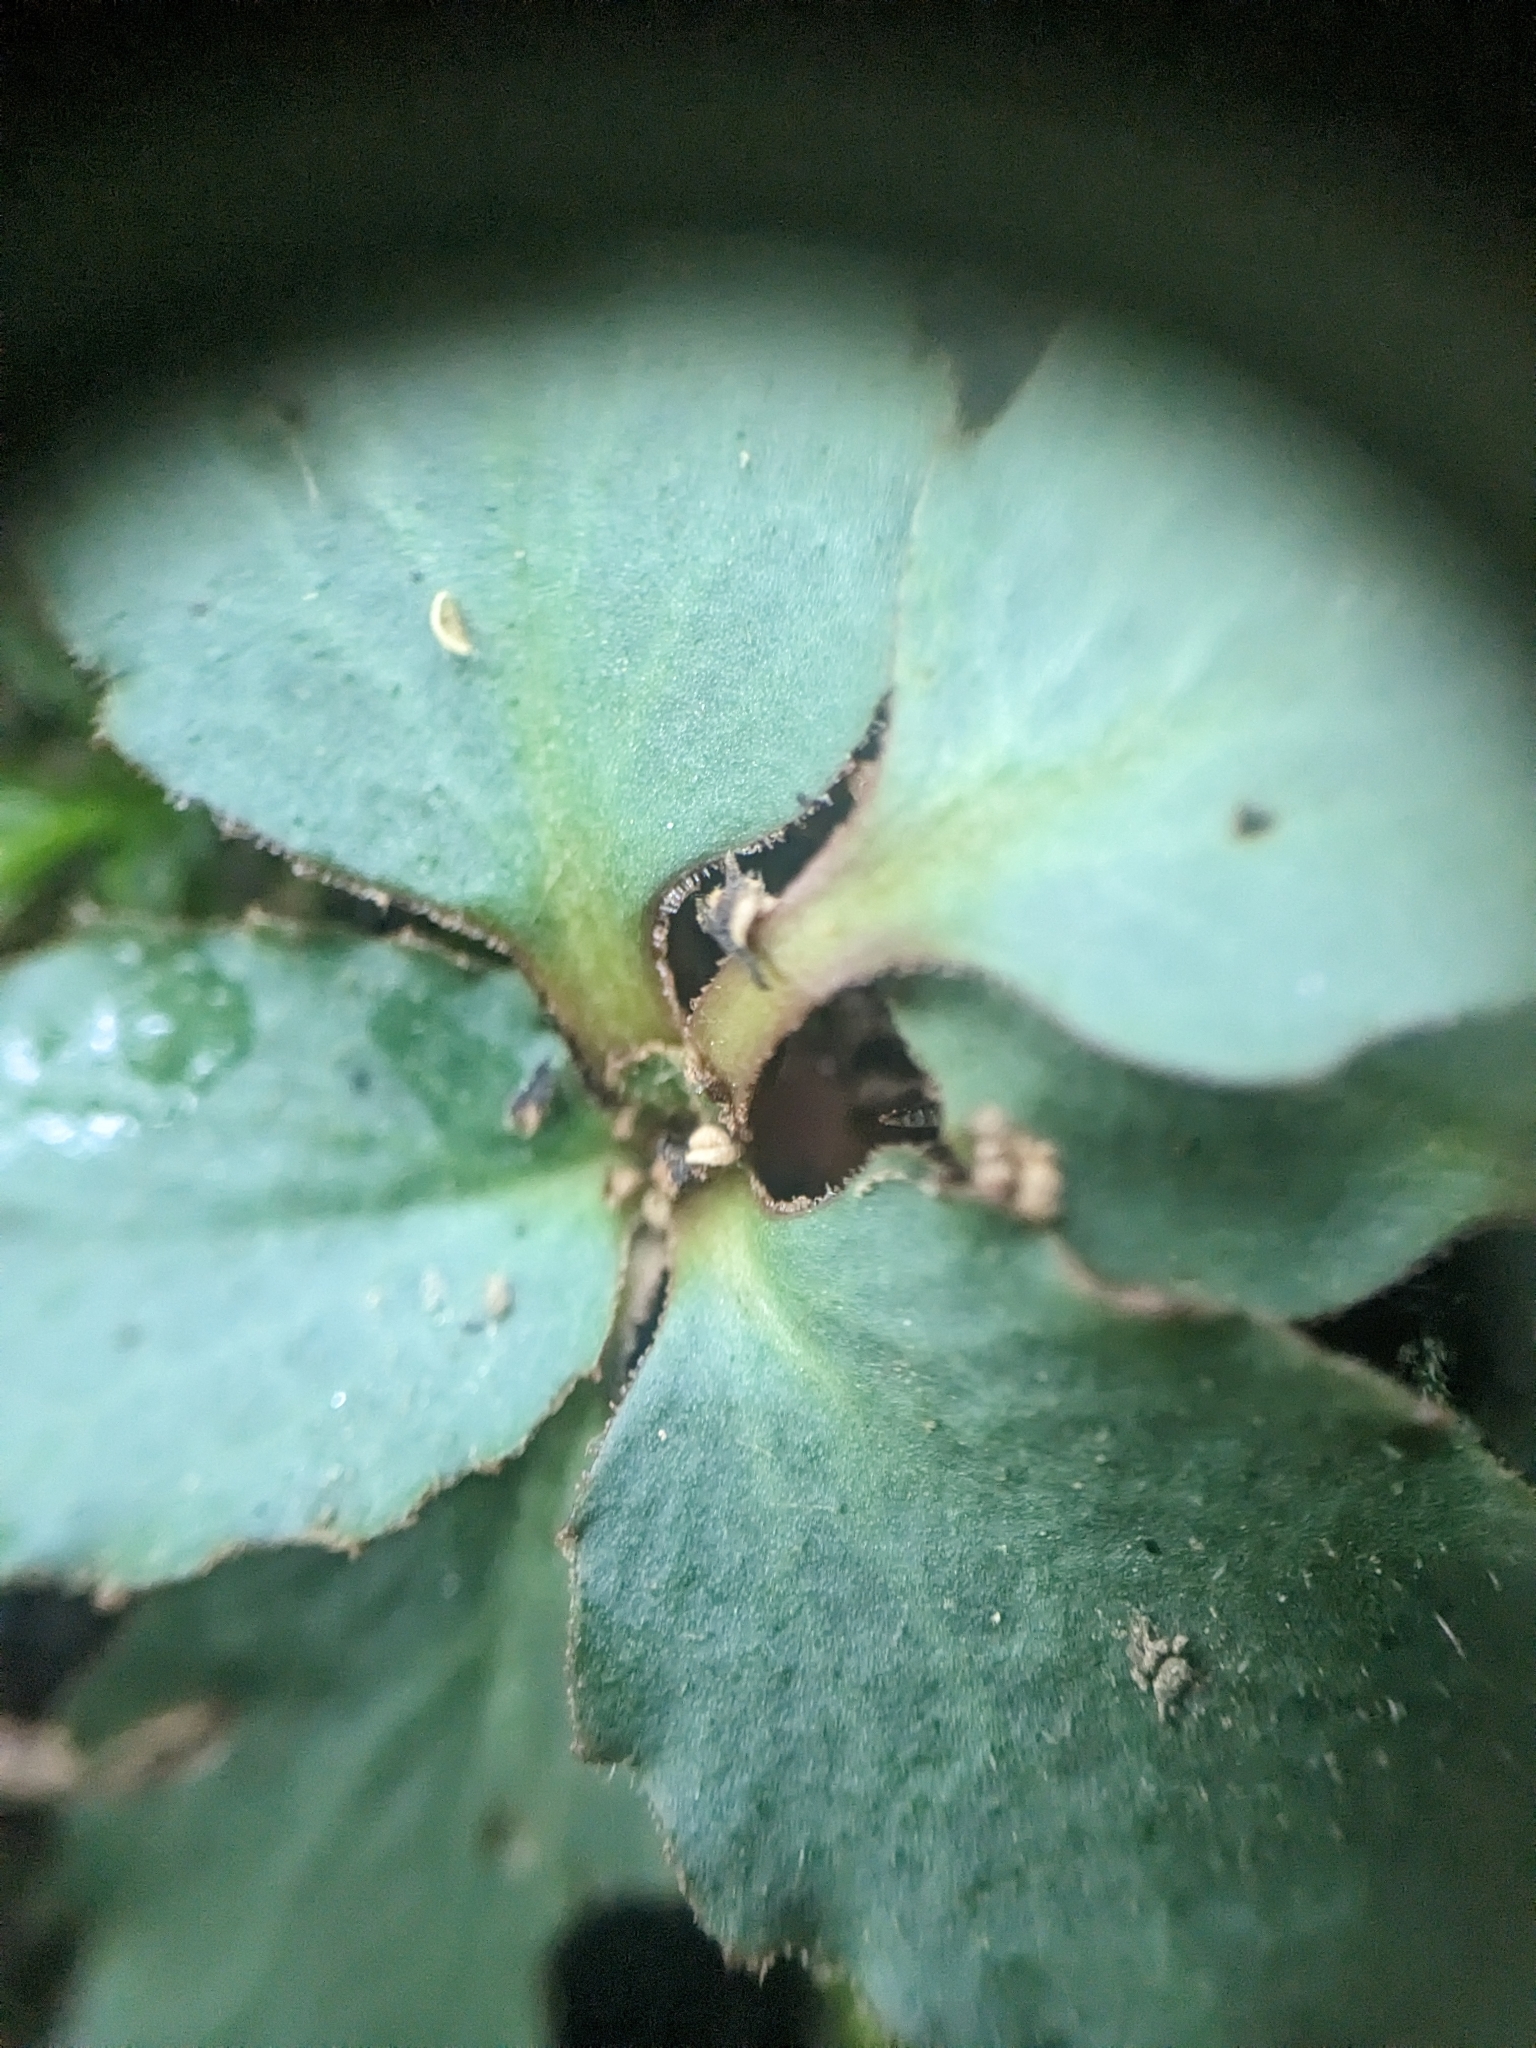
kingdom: Plantae
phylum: Tracheophyta
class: Magnoliopsida
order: Saxifragales
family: Saxifragaceae
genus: Micranthes
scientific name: Micranthes virginiensis
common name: Early saxifrage
